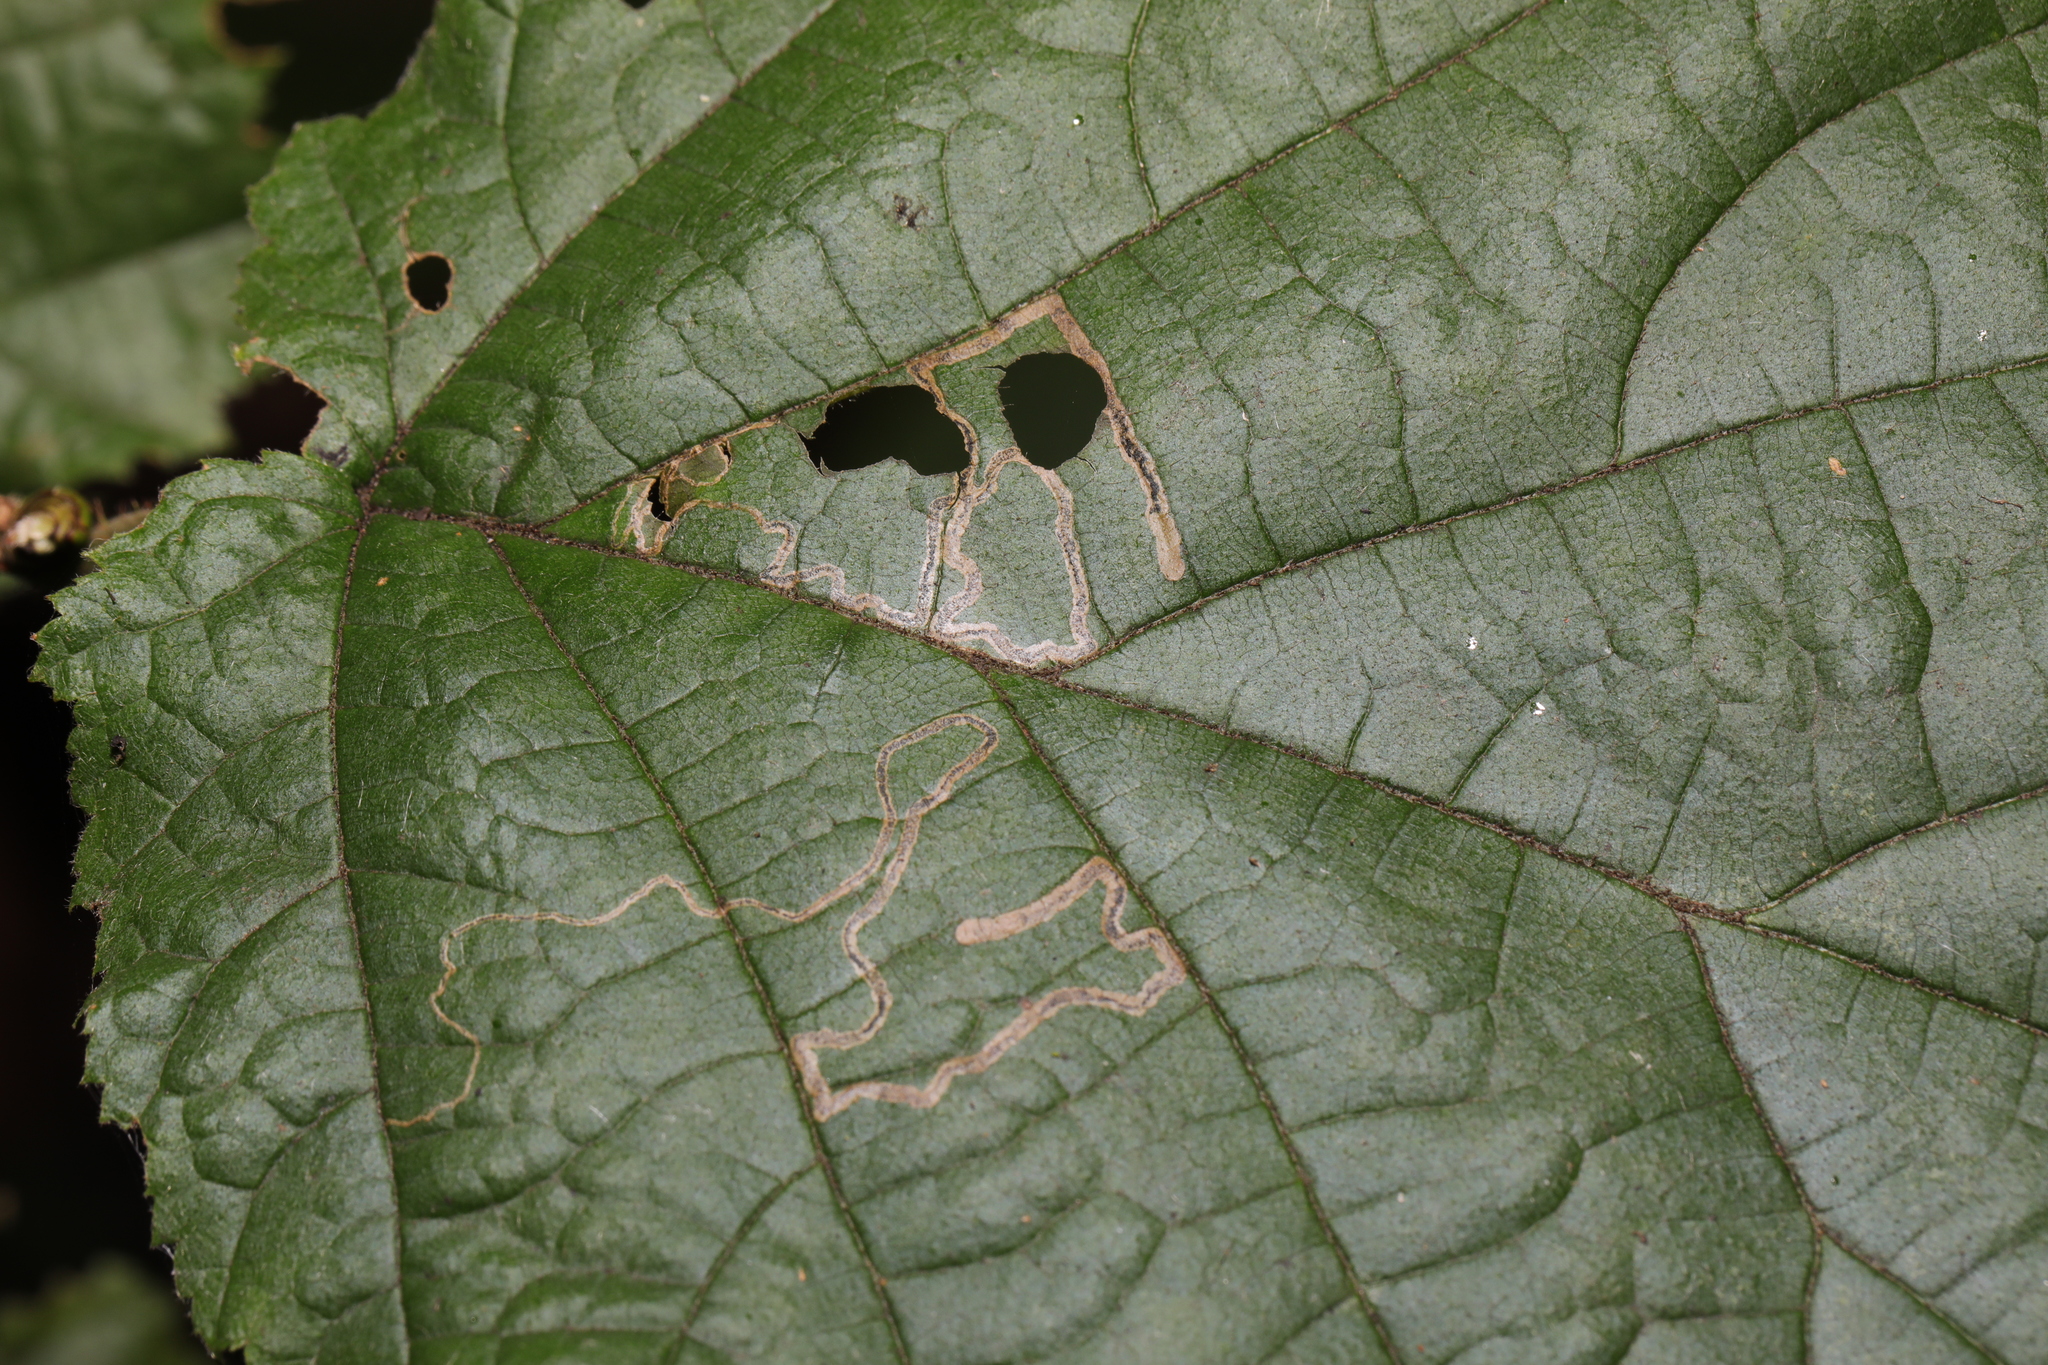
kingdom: Animalia
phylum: Arthropoda
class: Insecta
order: Lepidoptera
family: Nepticulidae
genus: Stigmella
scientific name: Stigmella microtheriella
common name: Nut-tree pigmy
